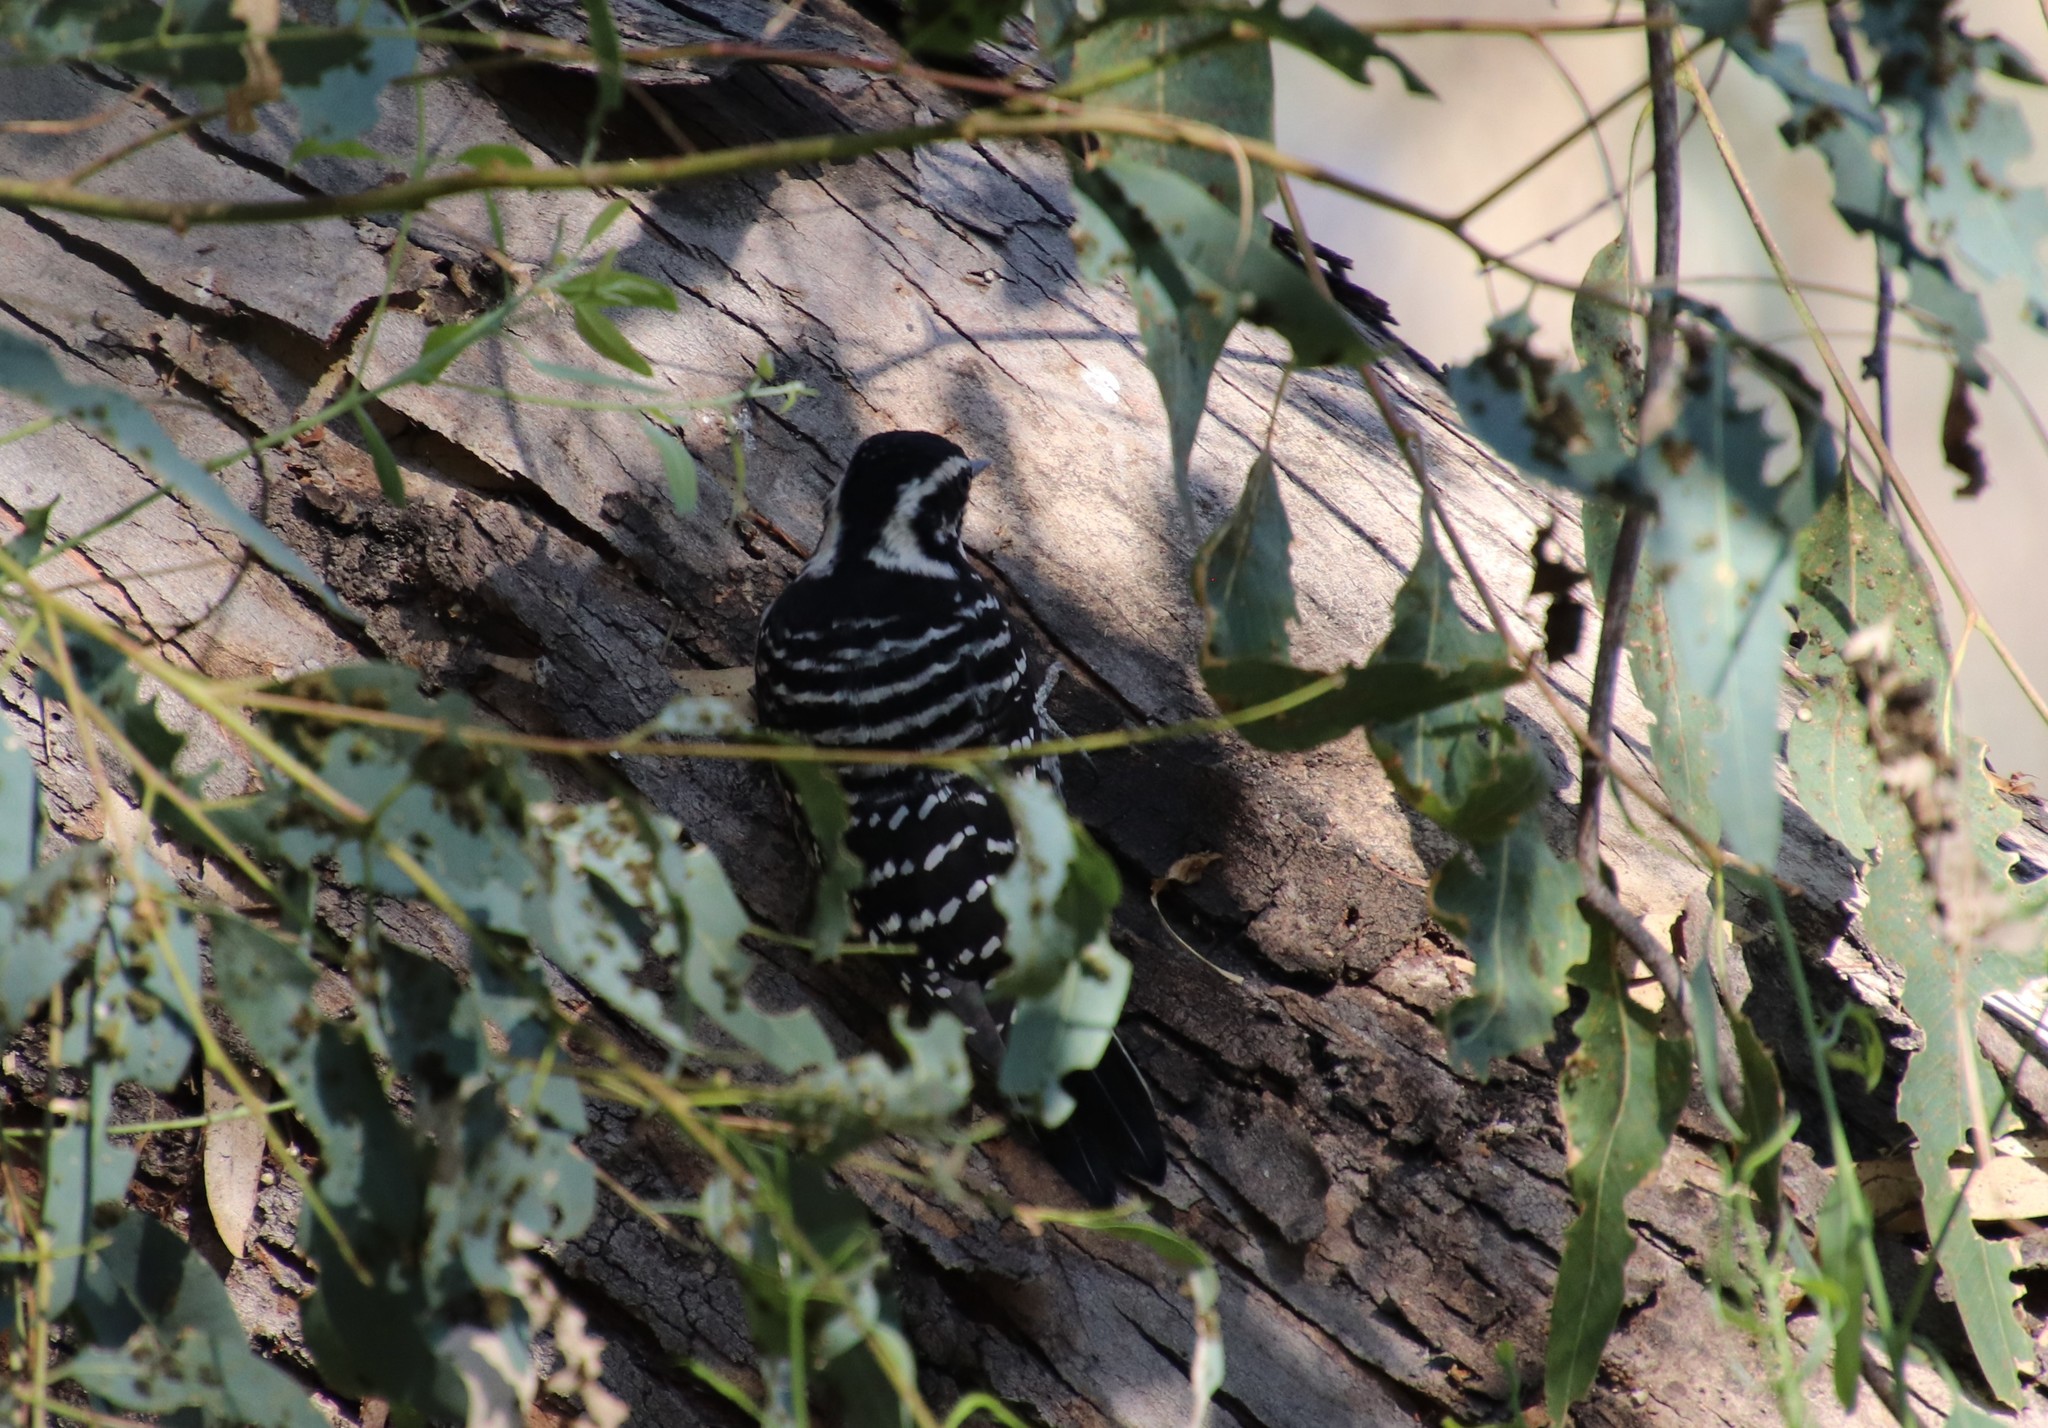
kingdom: Animalia
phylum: Chordata
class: Aves
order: Piciformes
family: Picidae
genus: Dryobates
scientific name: Dryobates nuttallii
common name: Nuttall's woodpecker
